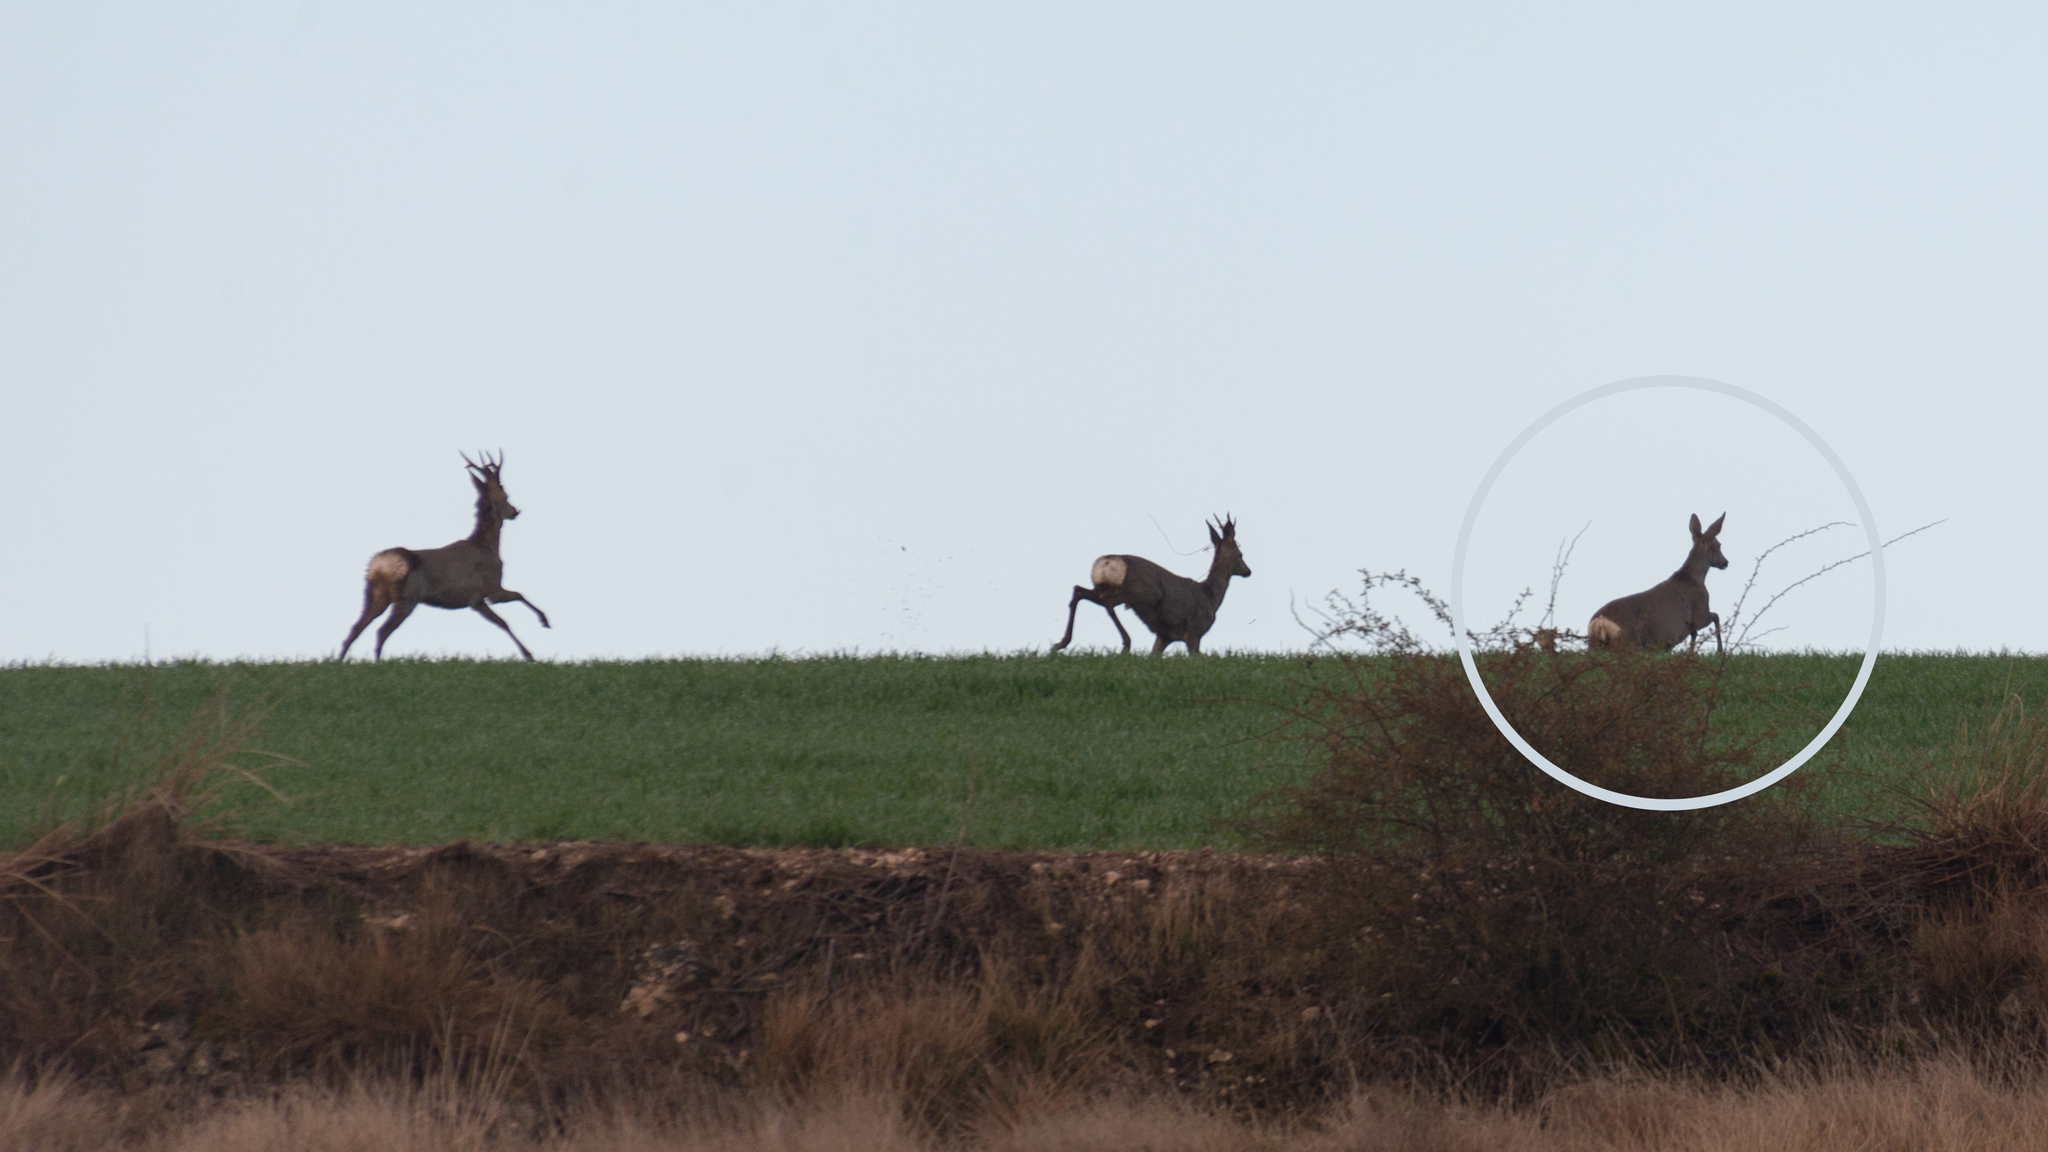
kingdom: Animalia
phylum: Chordata
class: Mammalia
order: Artiodactyla
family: Cervidae
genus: Capreolus
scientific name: Capreolus capreolus
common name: Western roe deer
